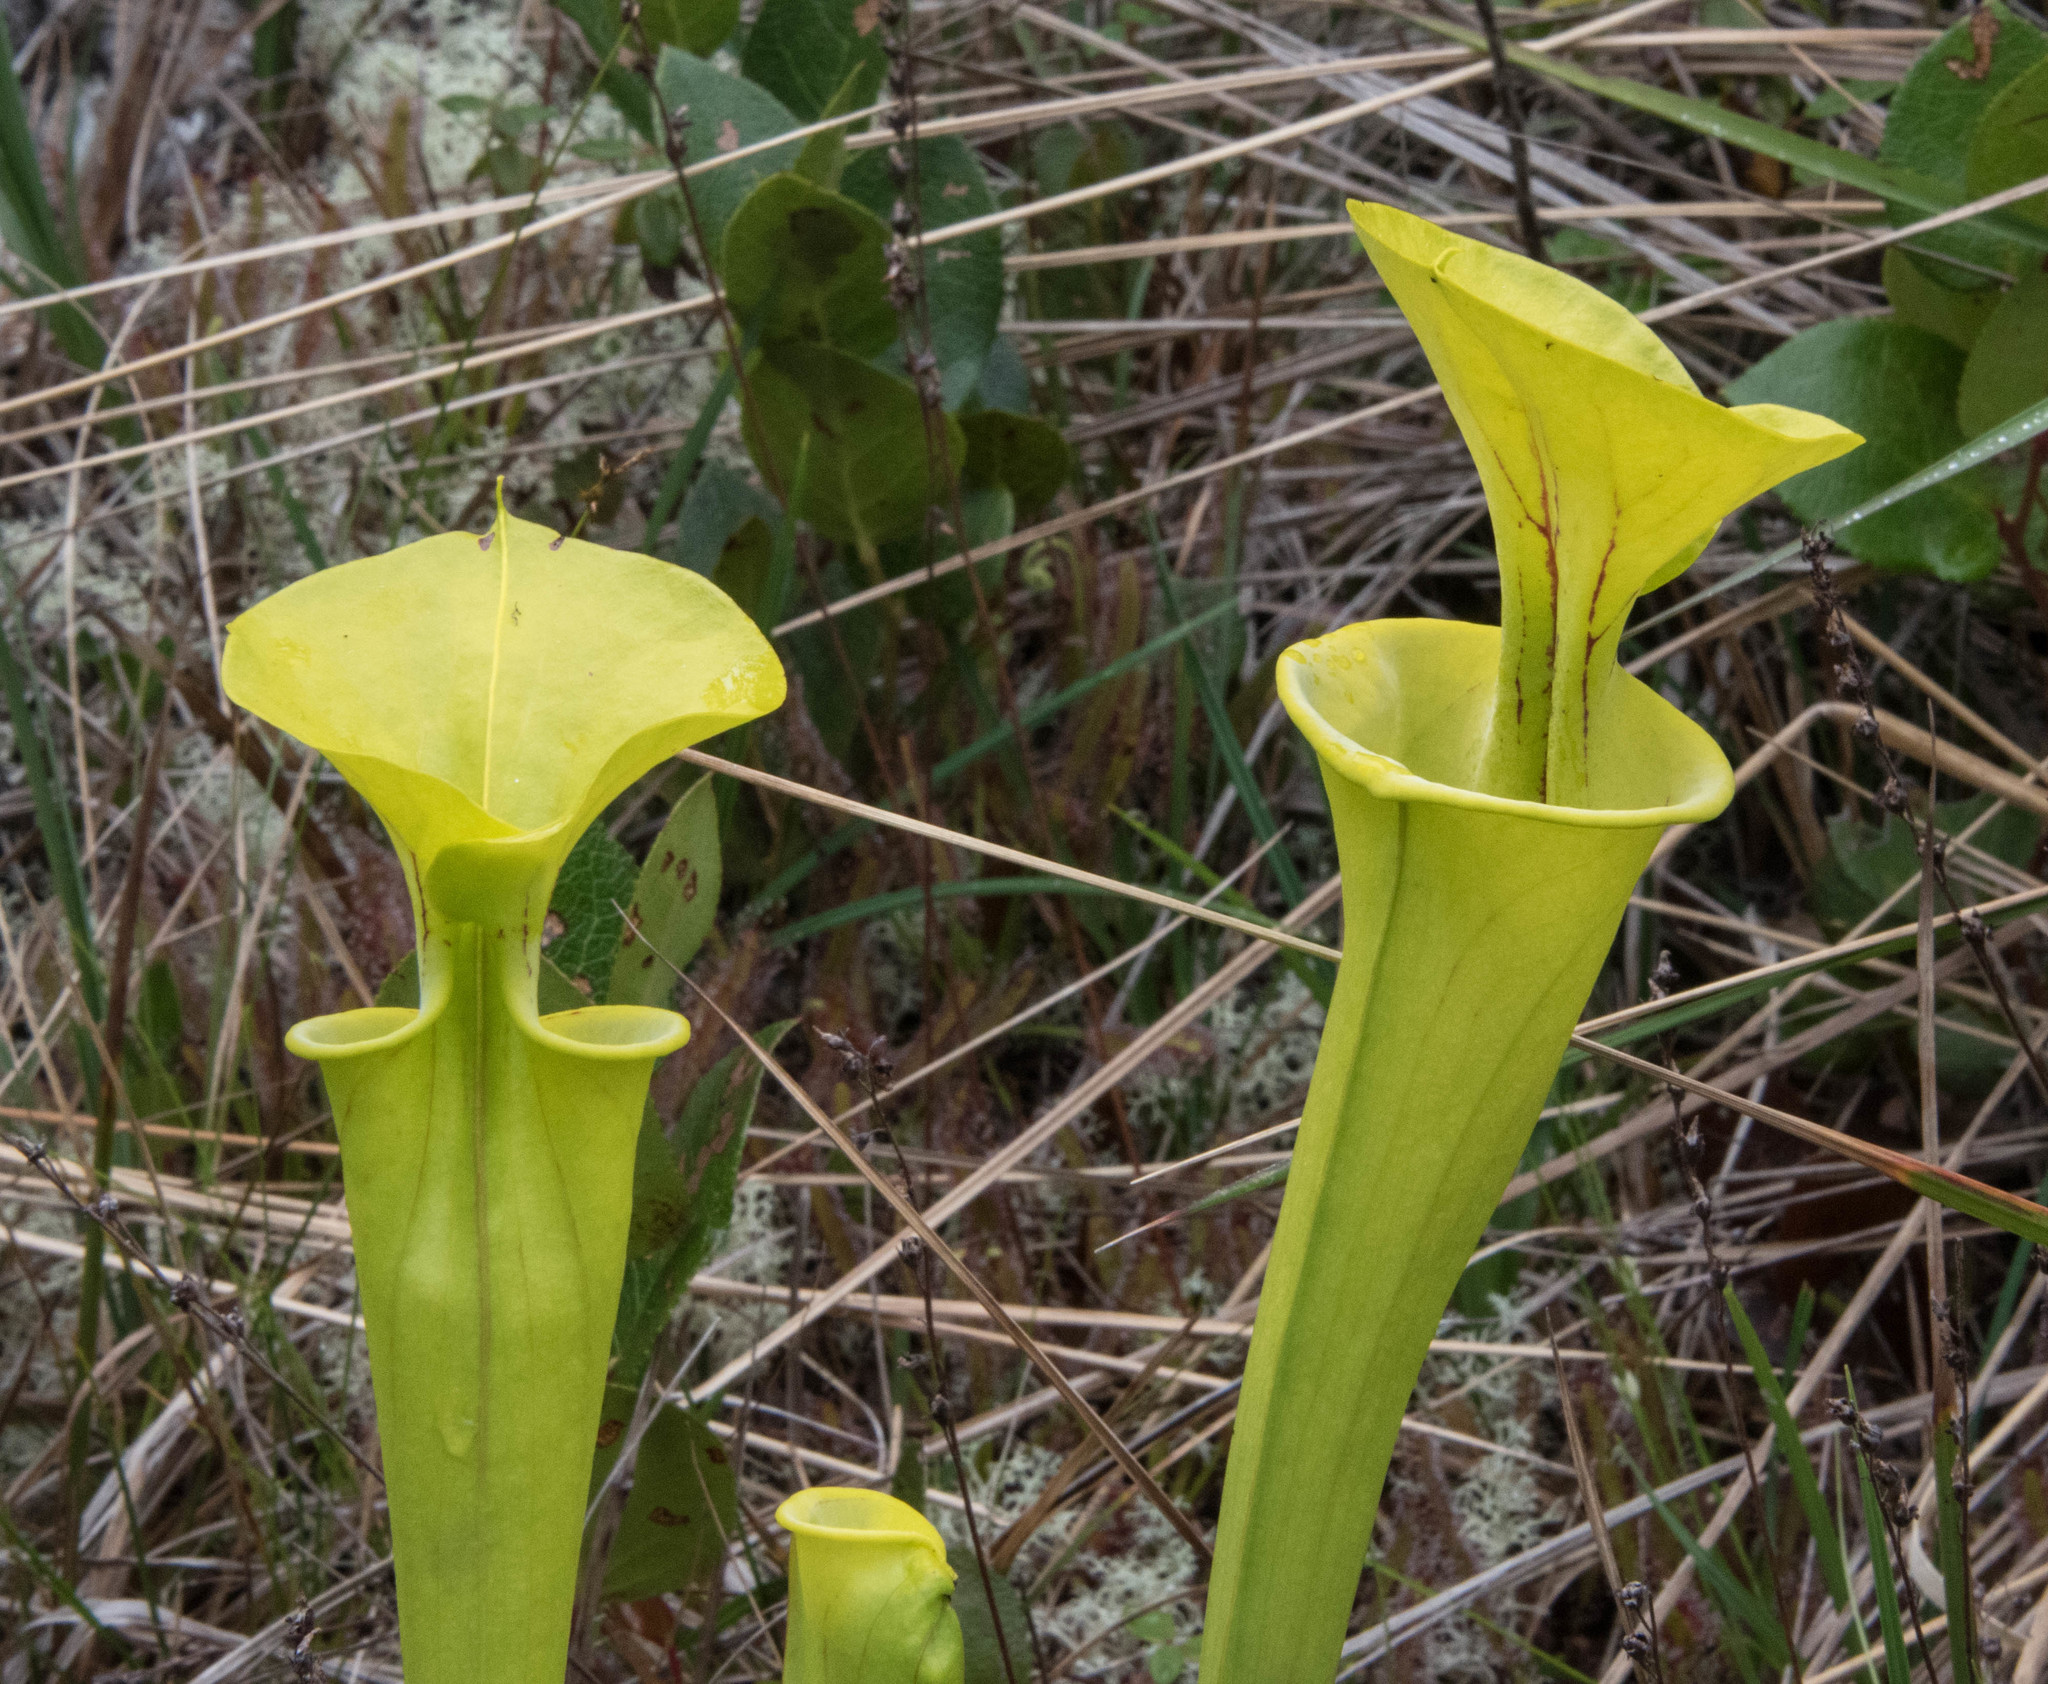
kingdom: Plantae
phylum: Tracheophyta
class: Magnoliopsida
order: Ericales
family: Sarraceniaceae
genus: Sarracenia
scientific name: Sarracenia flava
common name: Trumpets
